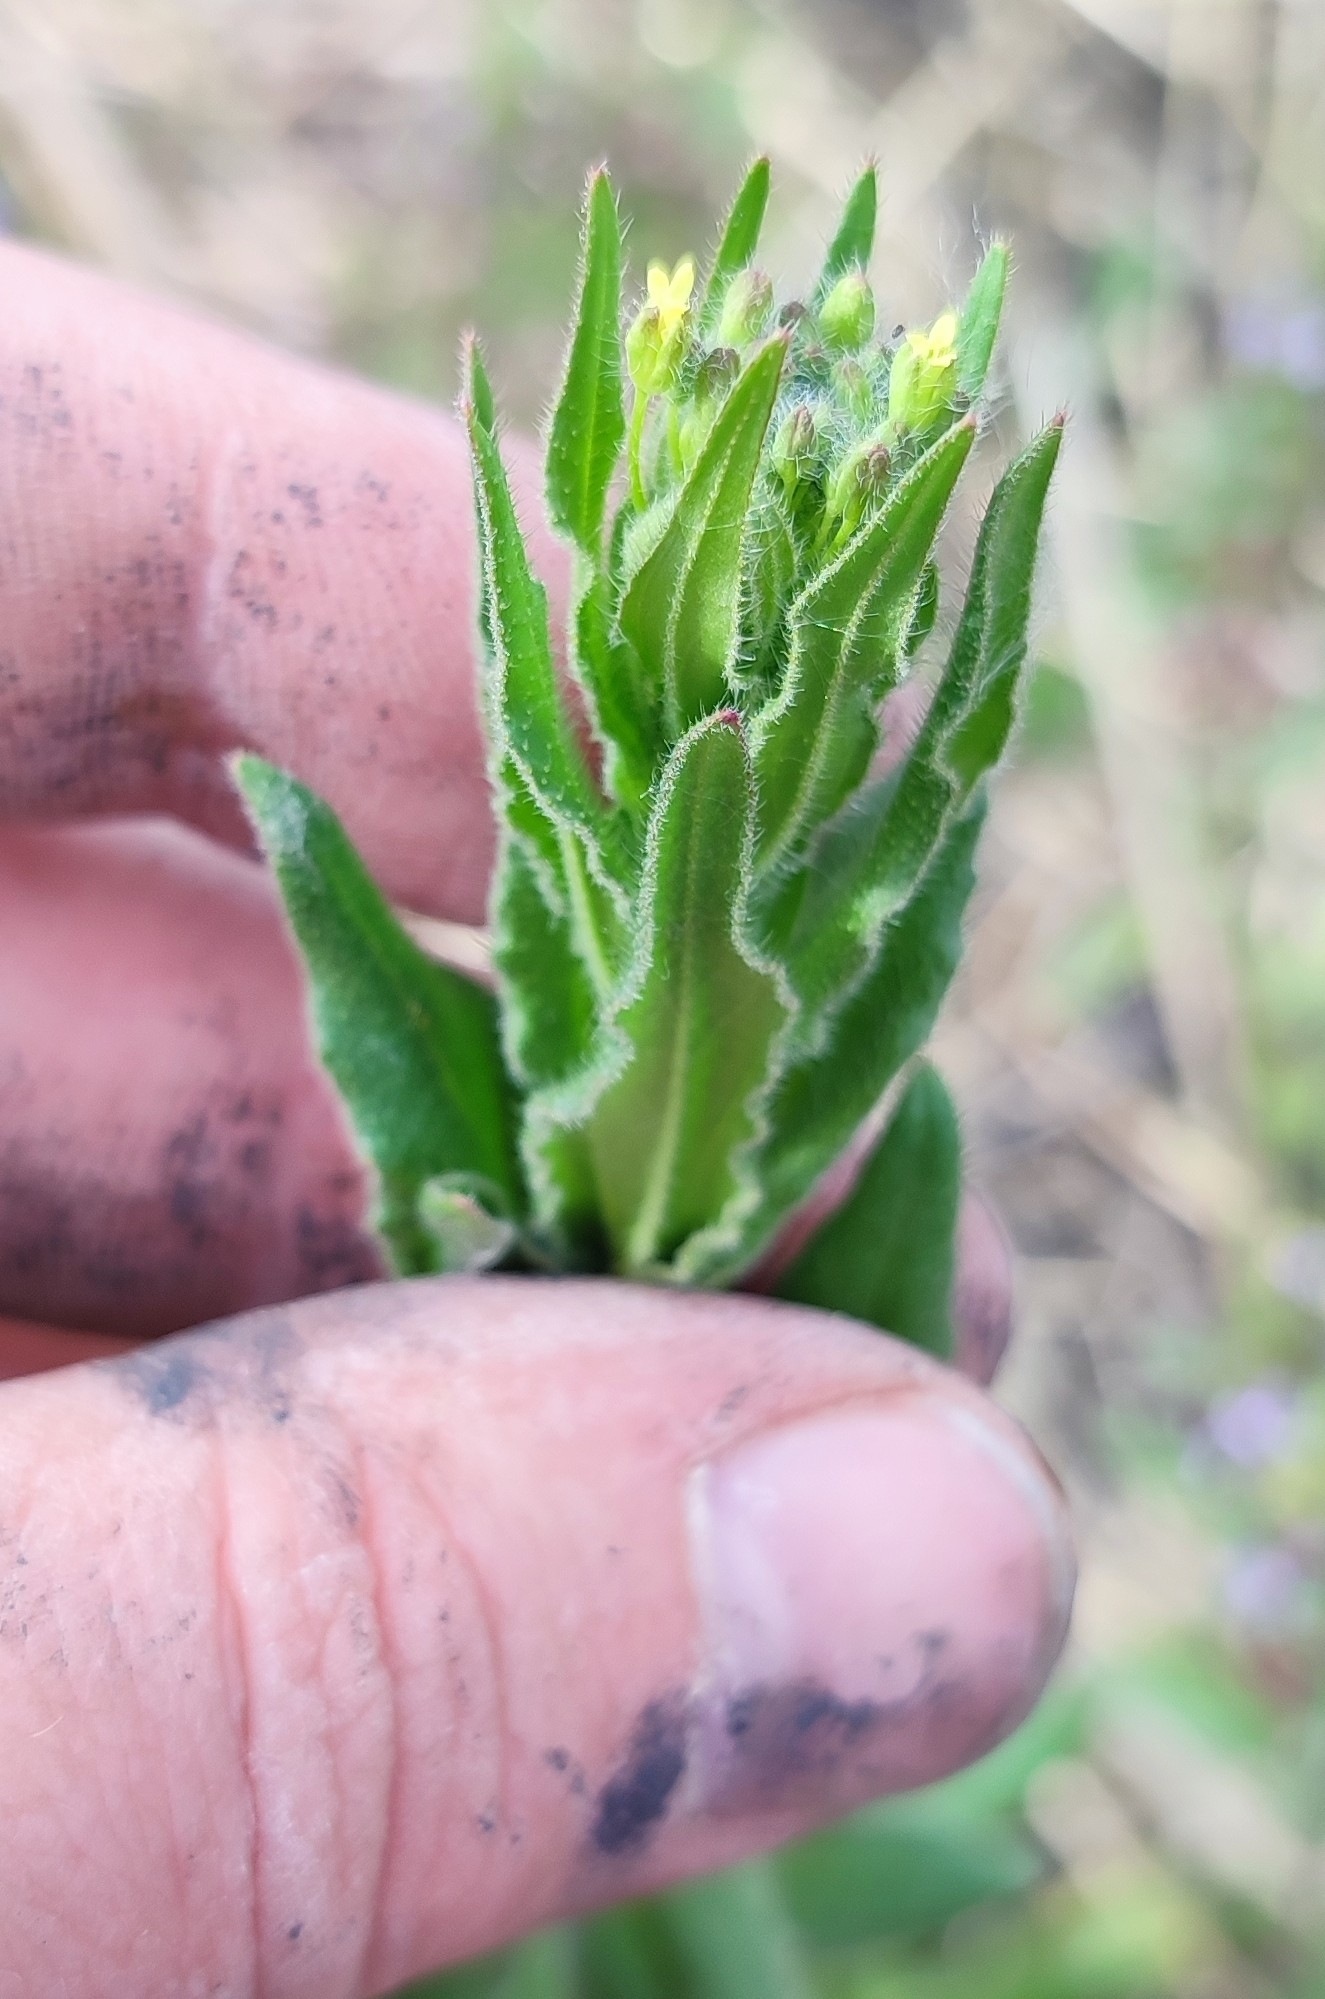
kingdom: Plantae
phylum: Tracheophyta
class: Magnoliopsida
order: Brassicales
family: Brassicaceae
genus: Arabis
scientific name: Arabis hirsuta
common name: Hairy rock-cress
